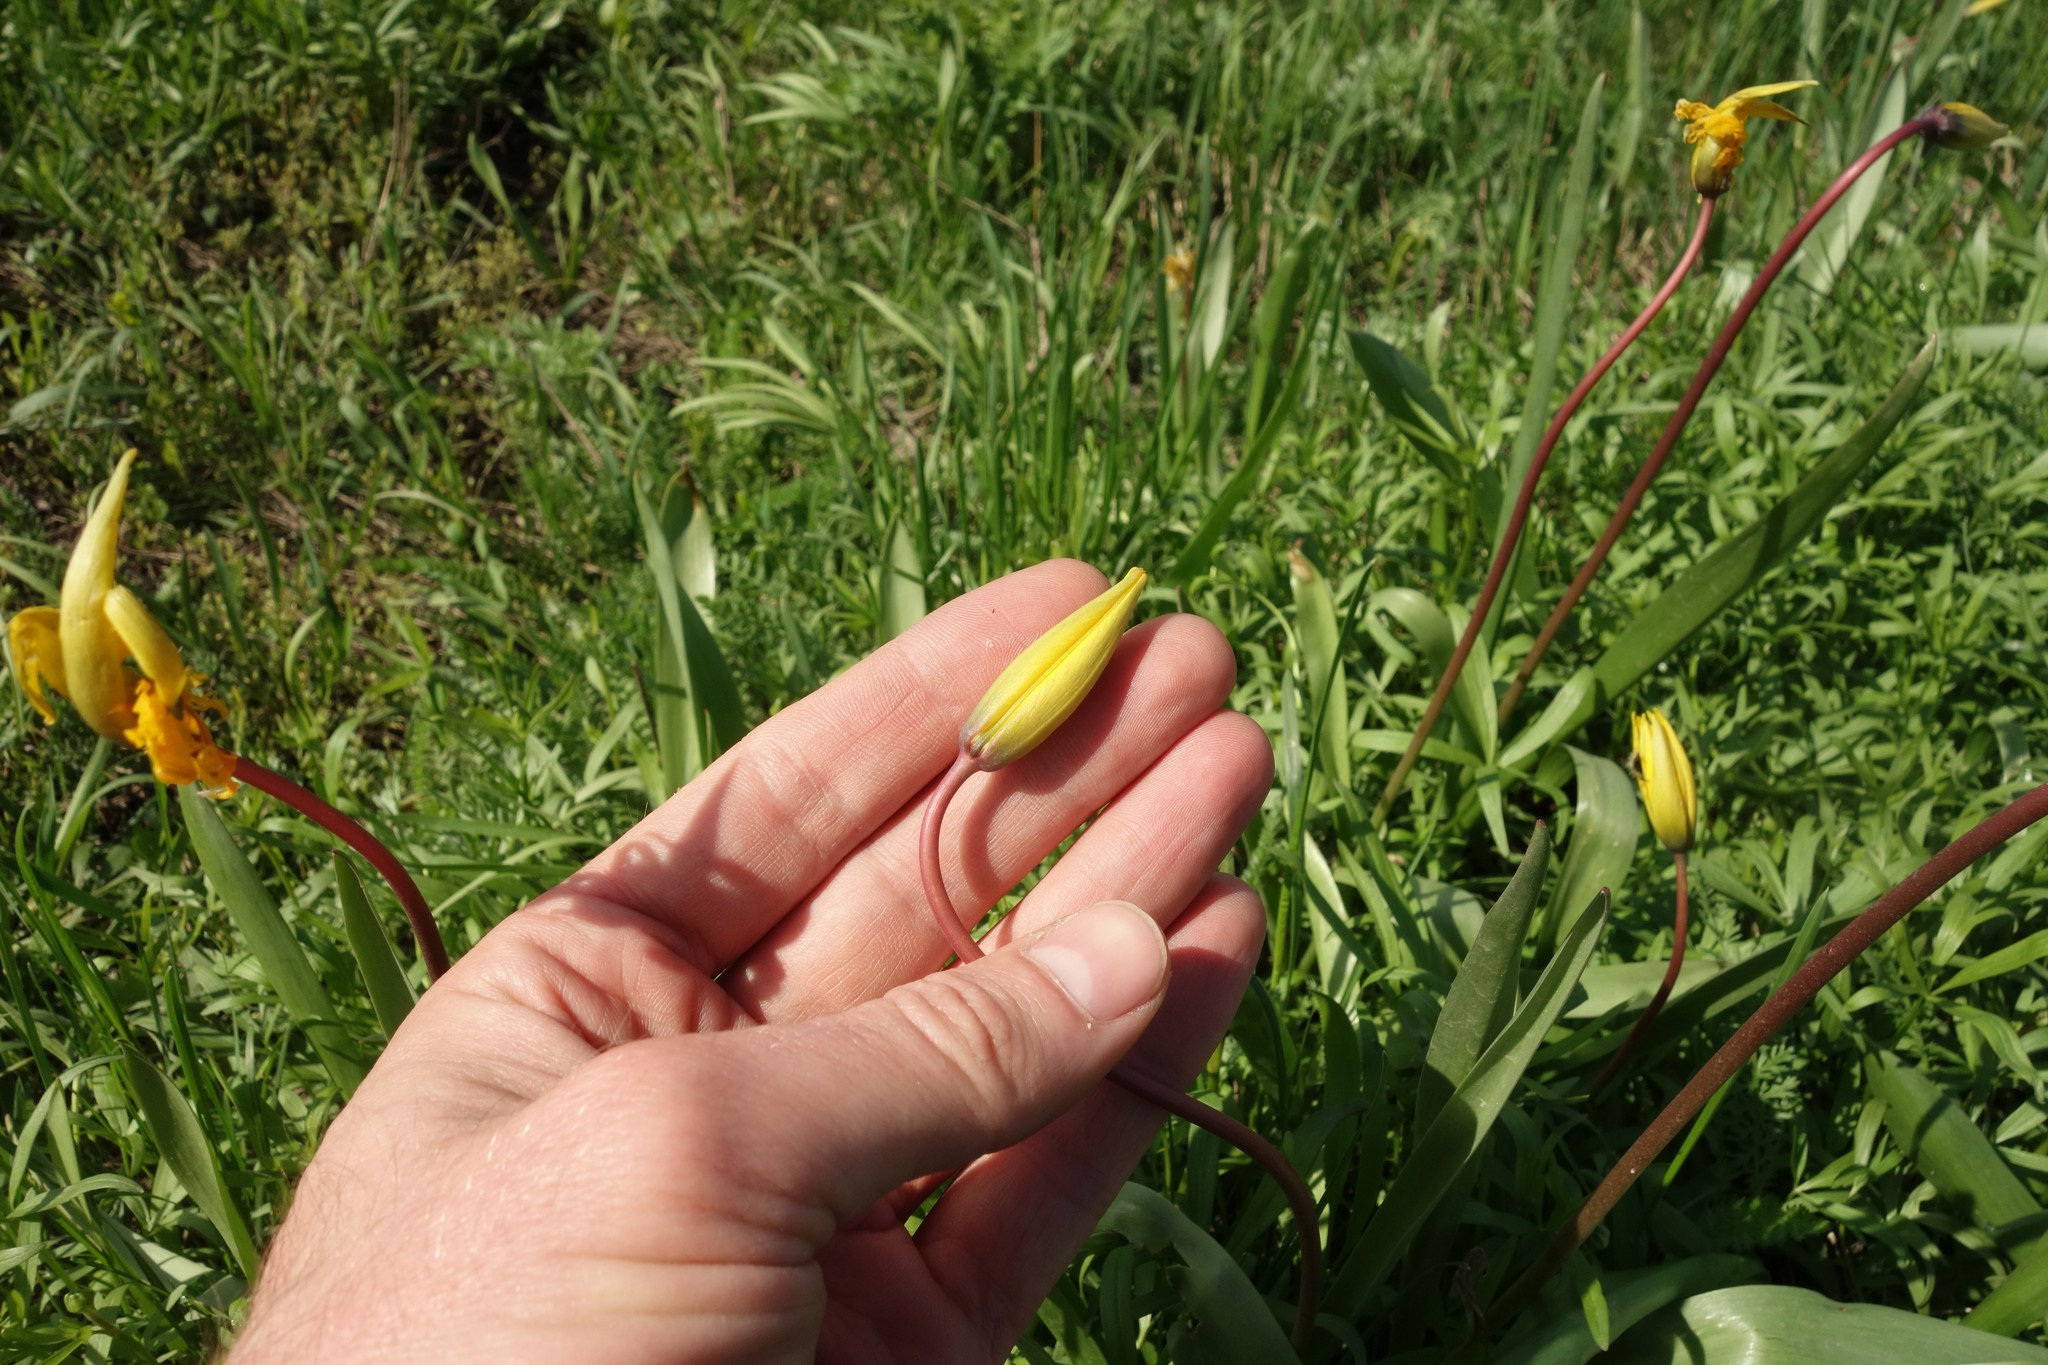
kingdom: Plantae
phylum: Tracheophyta
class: Liliopsida
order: Liliales
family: Liliaceae
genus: Tulipa
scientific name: Tulipa sylvestris
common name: Wild tulip
